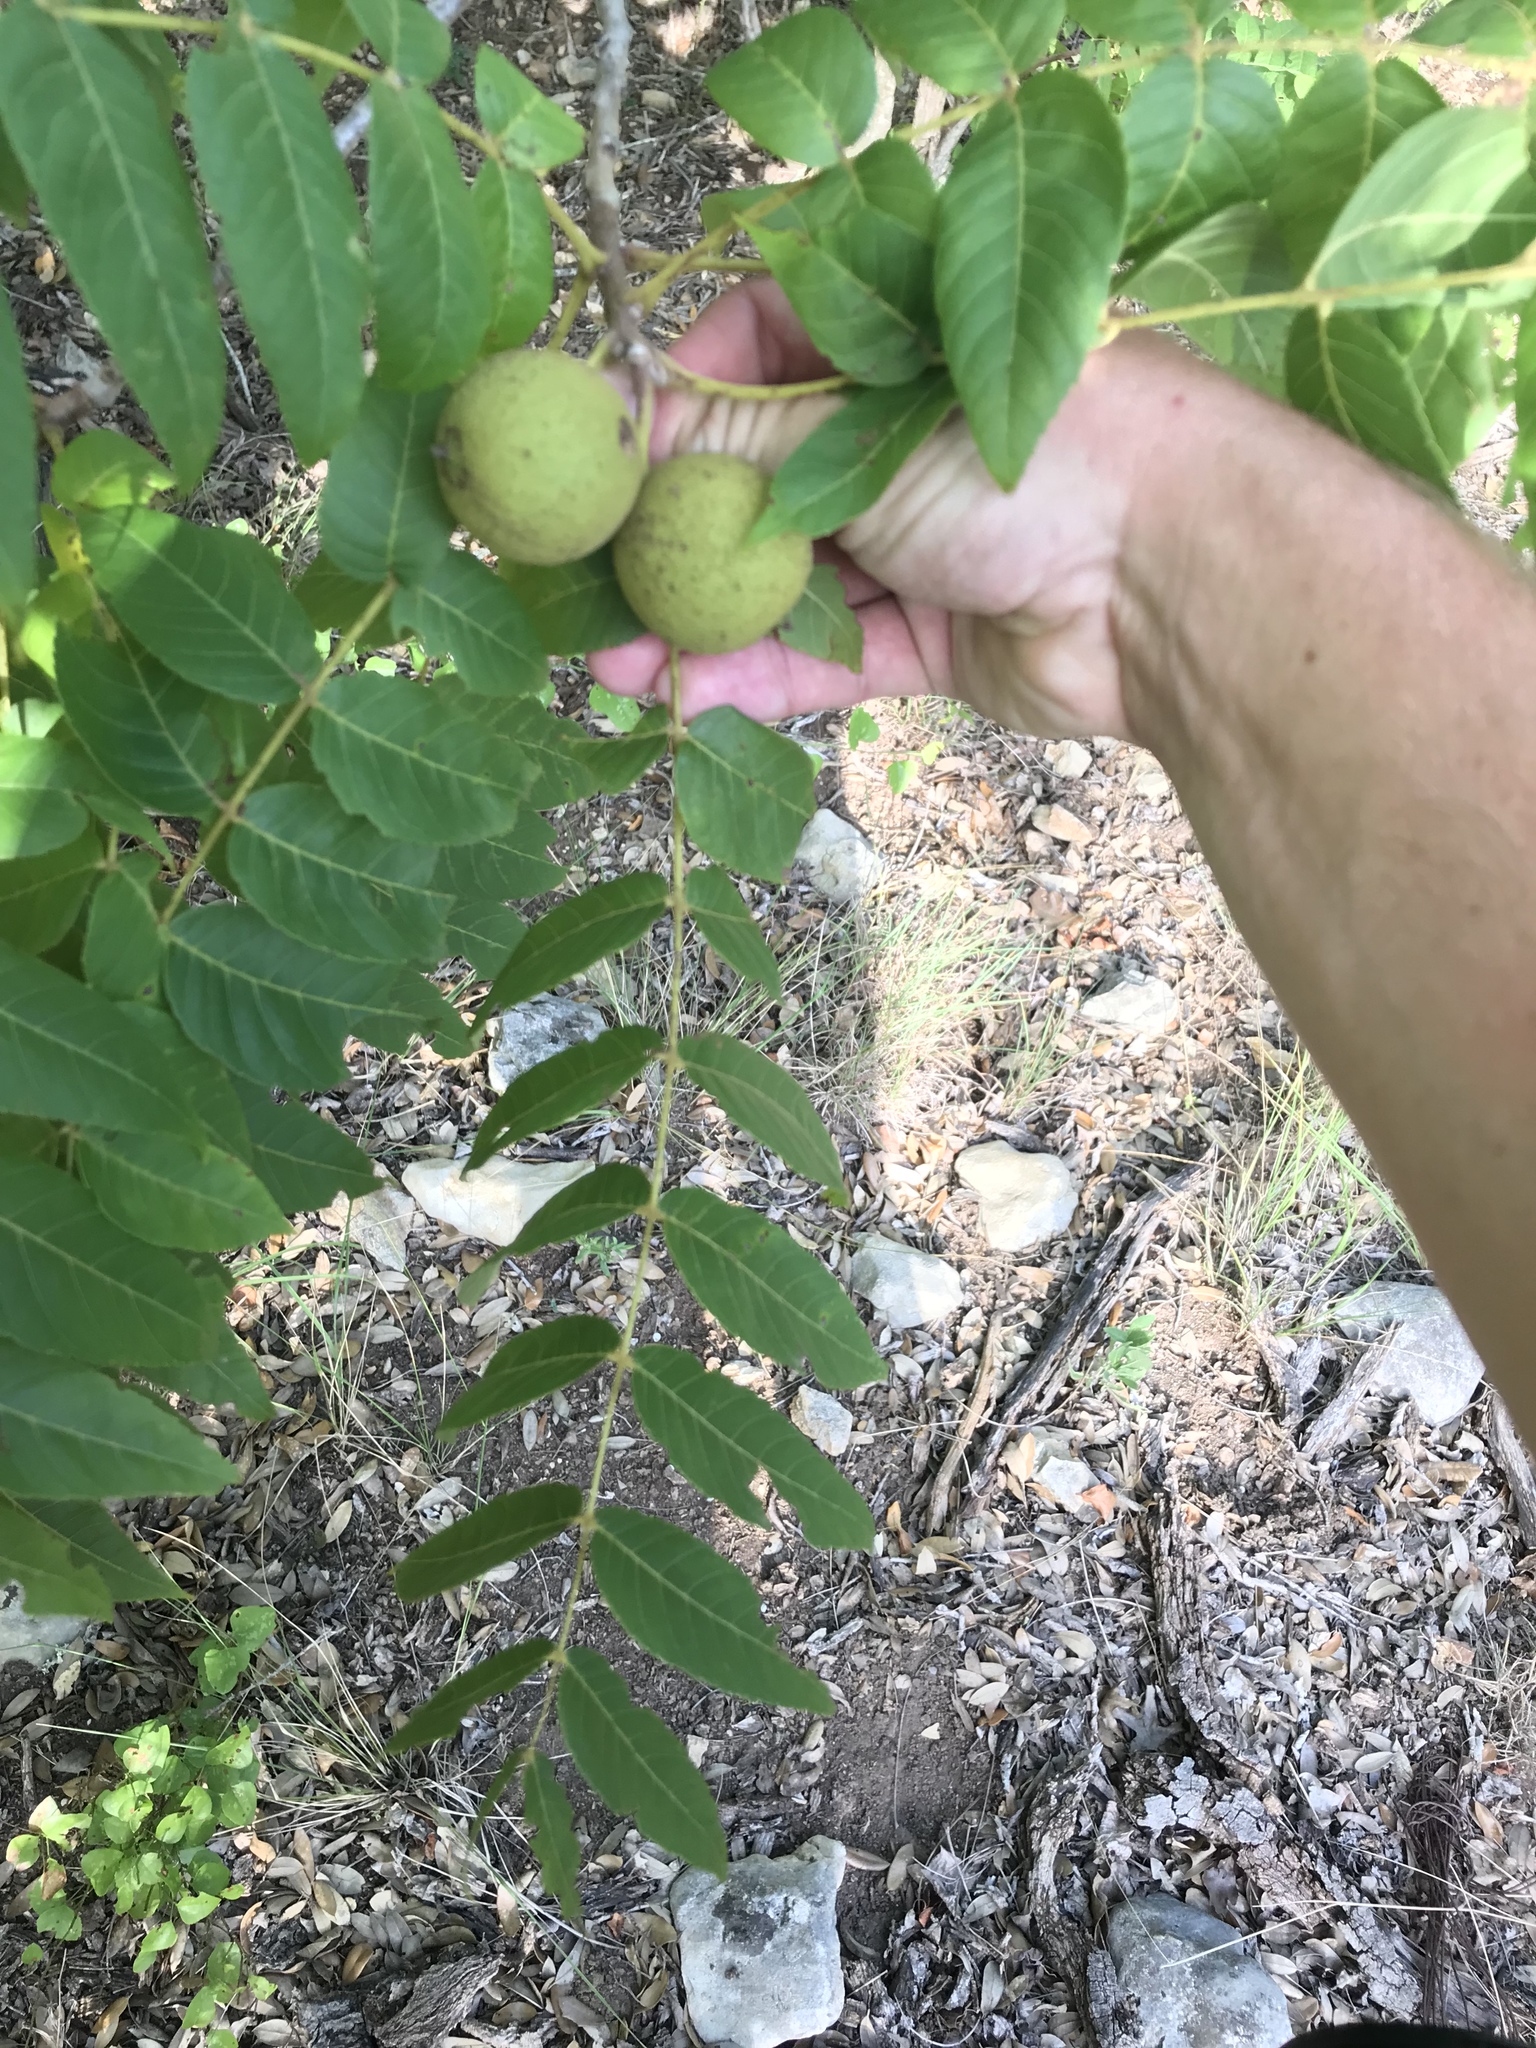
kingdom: Plantae
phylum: Tracheophyta
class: Magnoliopsida
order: Fagales
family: Juglandaceae
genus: Juglans
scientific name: Juglans major
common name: Arizona walnut
